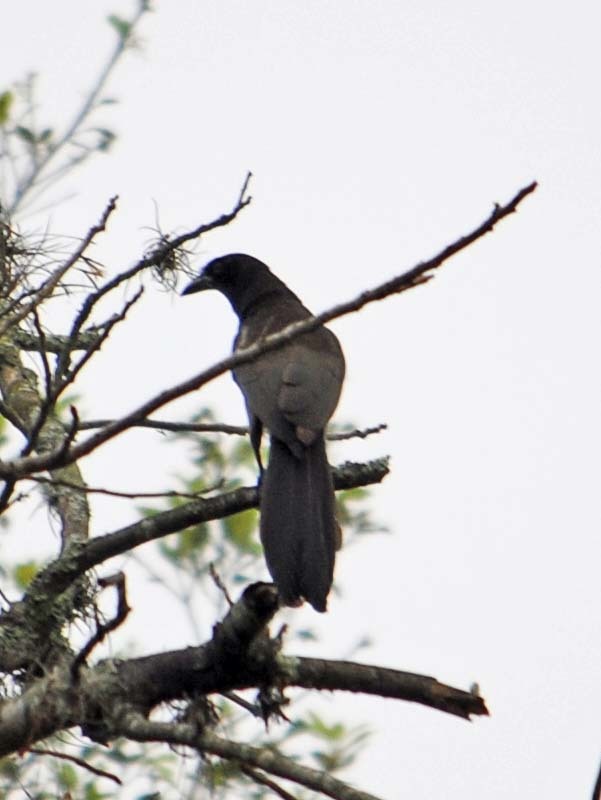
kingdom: Animalia
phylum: Chordata
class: Aves
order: Passeriformes
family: Corvidae
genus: Psilorhinus
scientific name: Psilorhinus morio
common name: Brown jay
